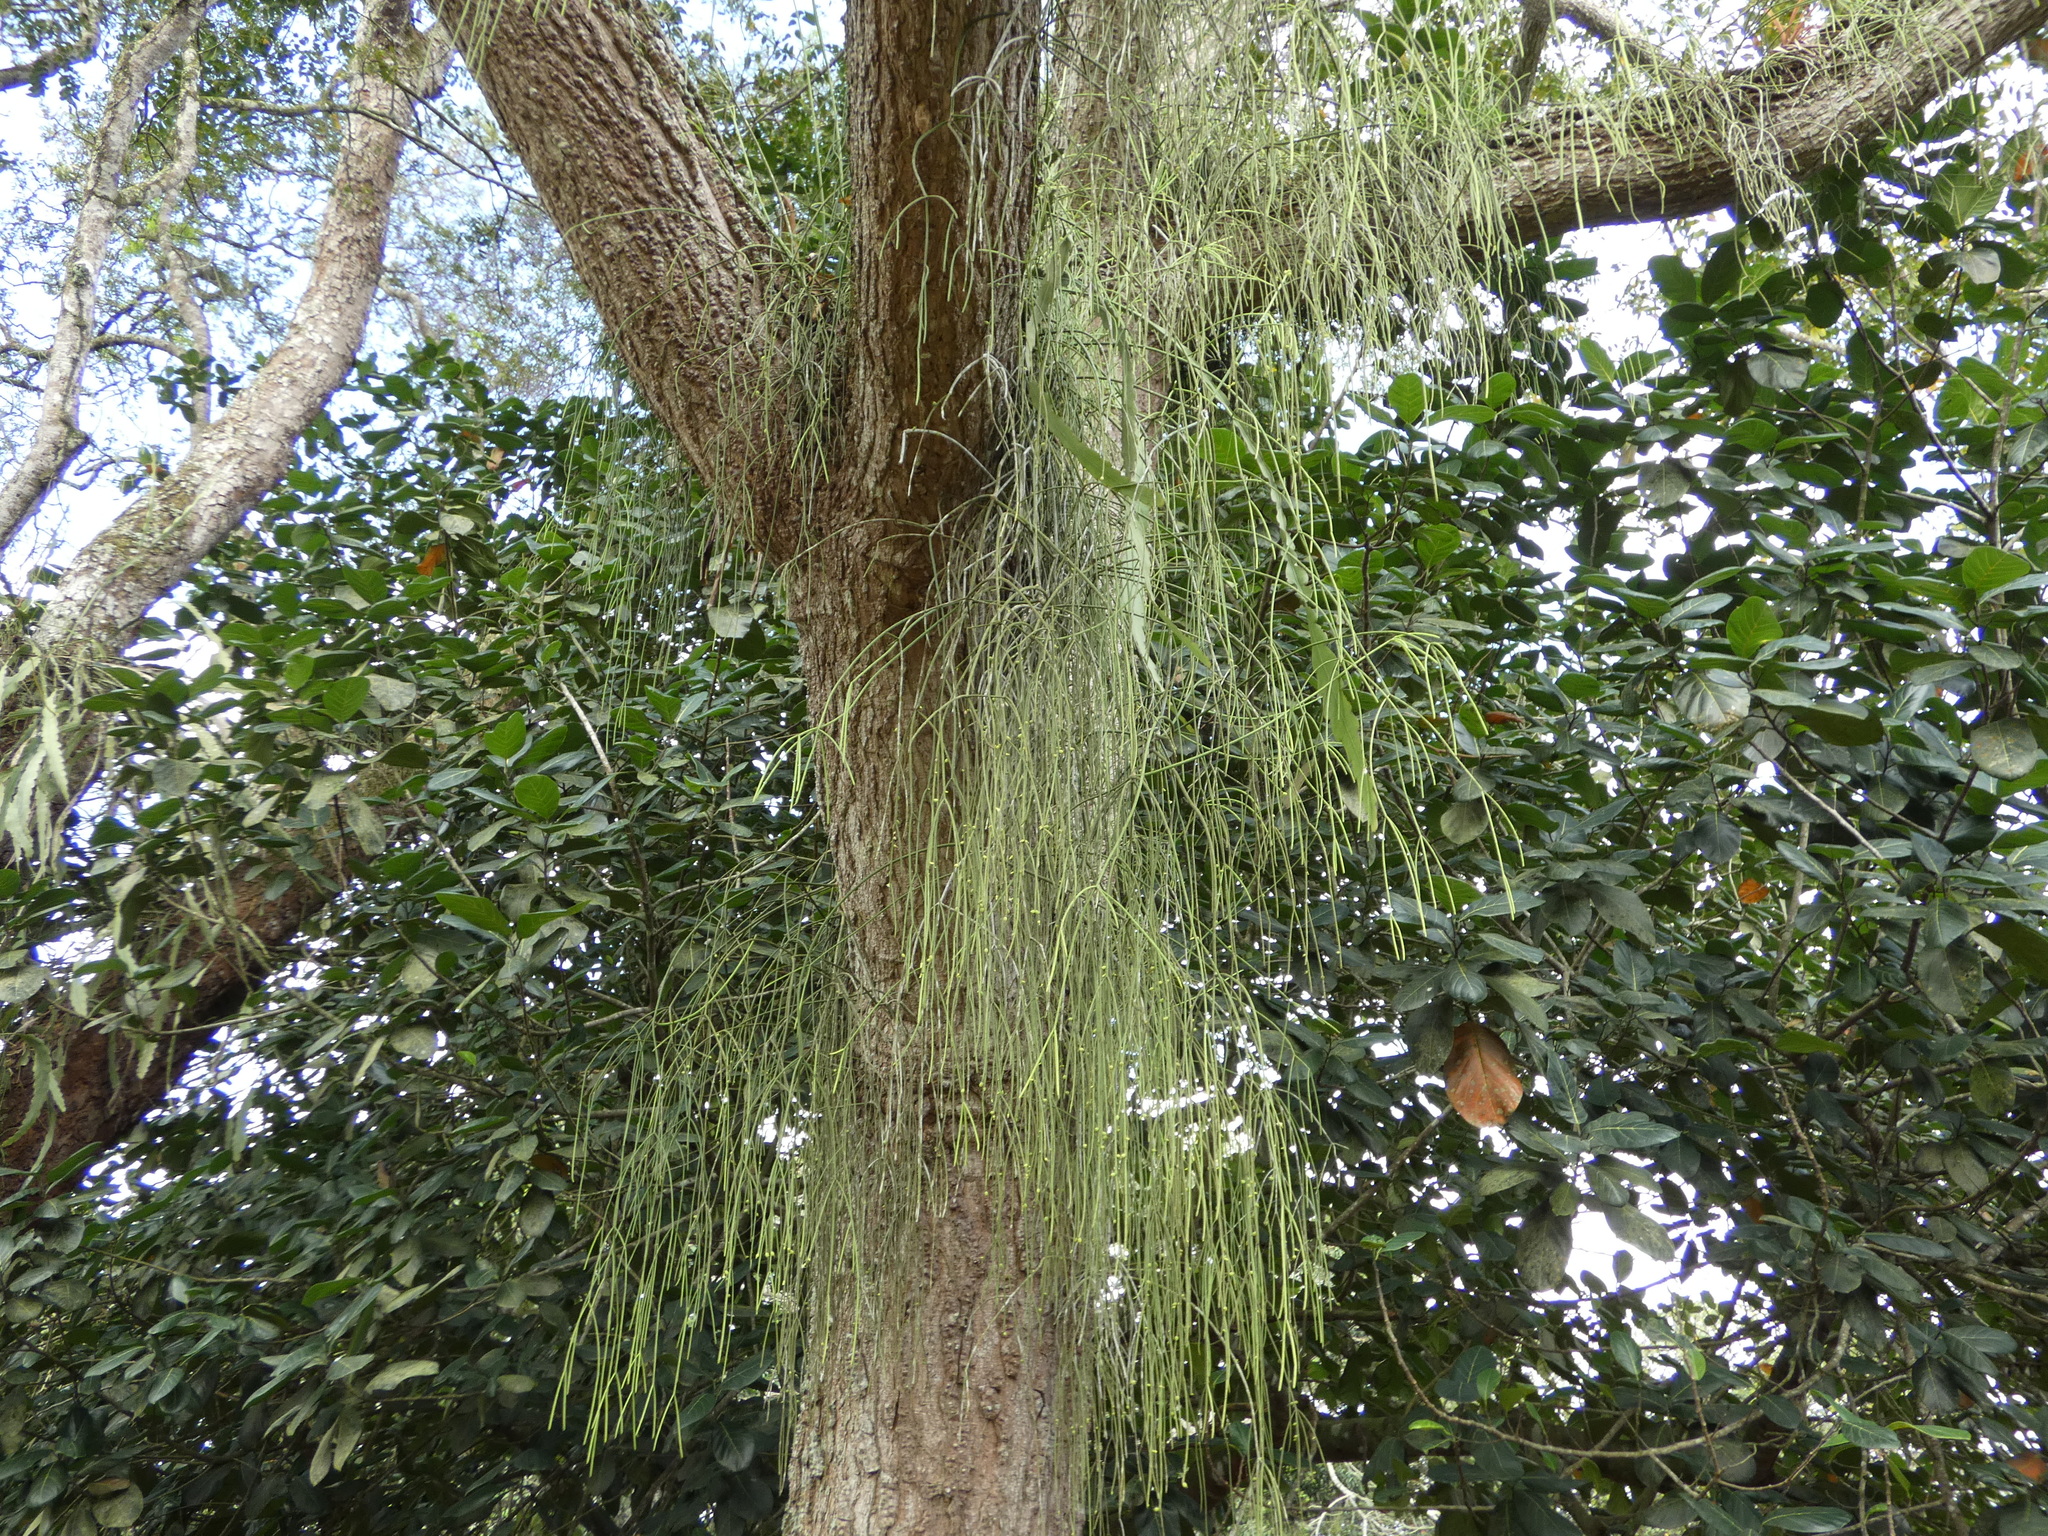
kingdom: Plantae
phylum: Tracheophyta
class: Magnoliopsida
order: Caryophyllales
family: Cactaceae
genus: Rhipsalis
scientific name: Rhipsalis baccifera
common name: Mistletoe cactus
